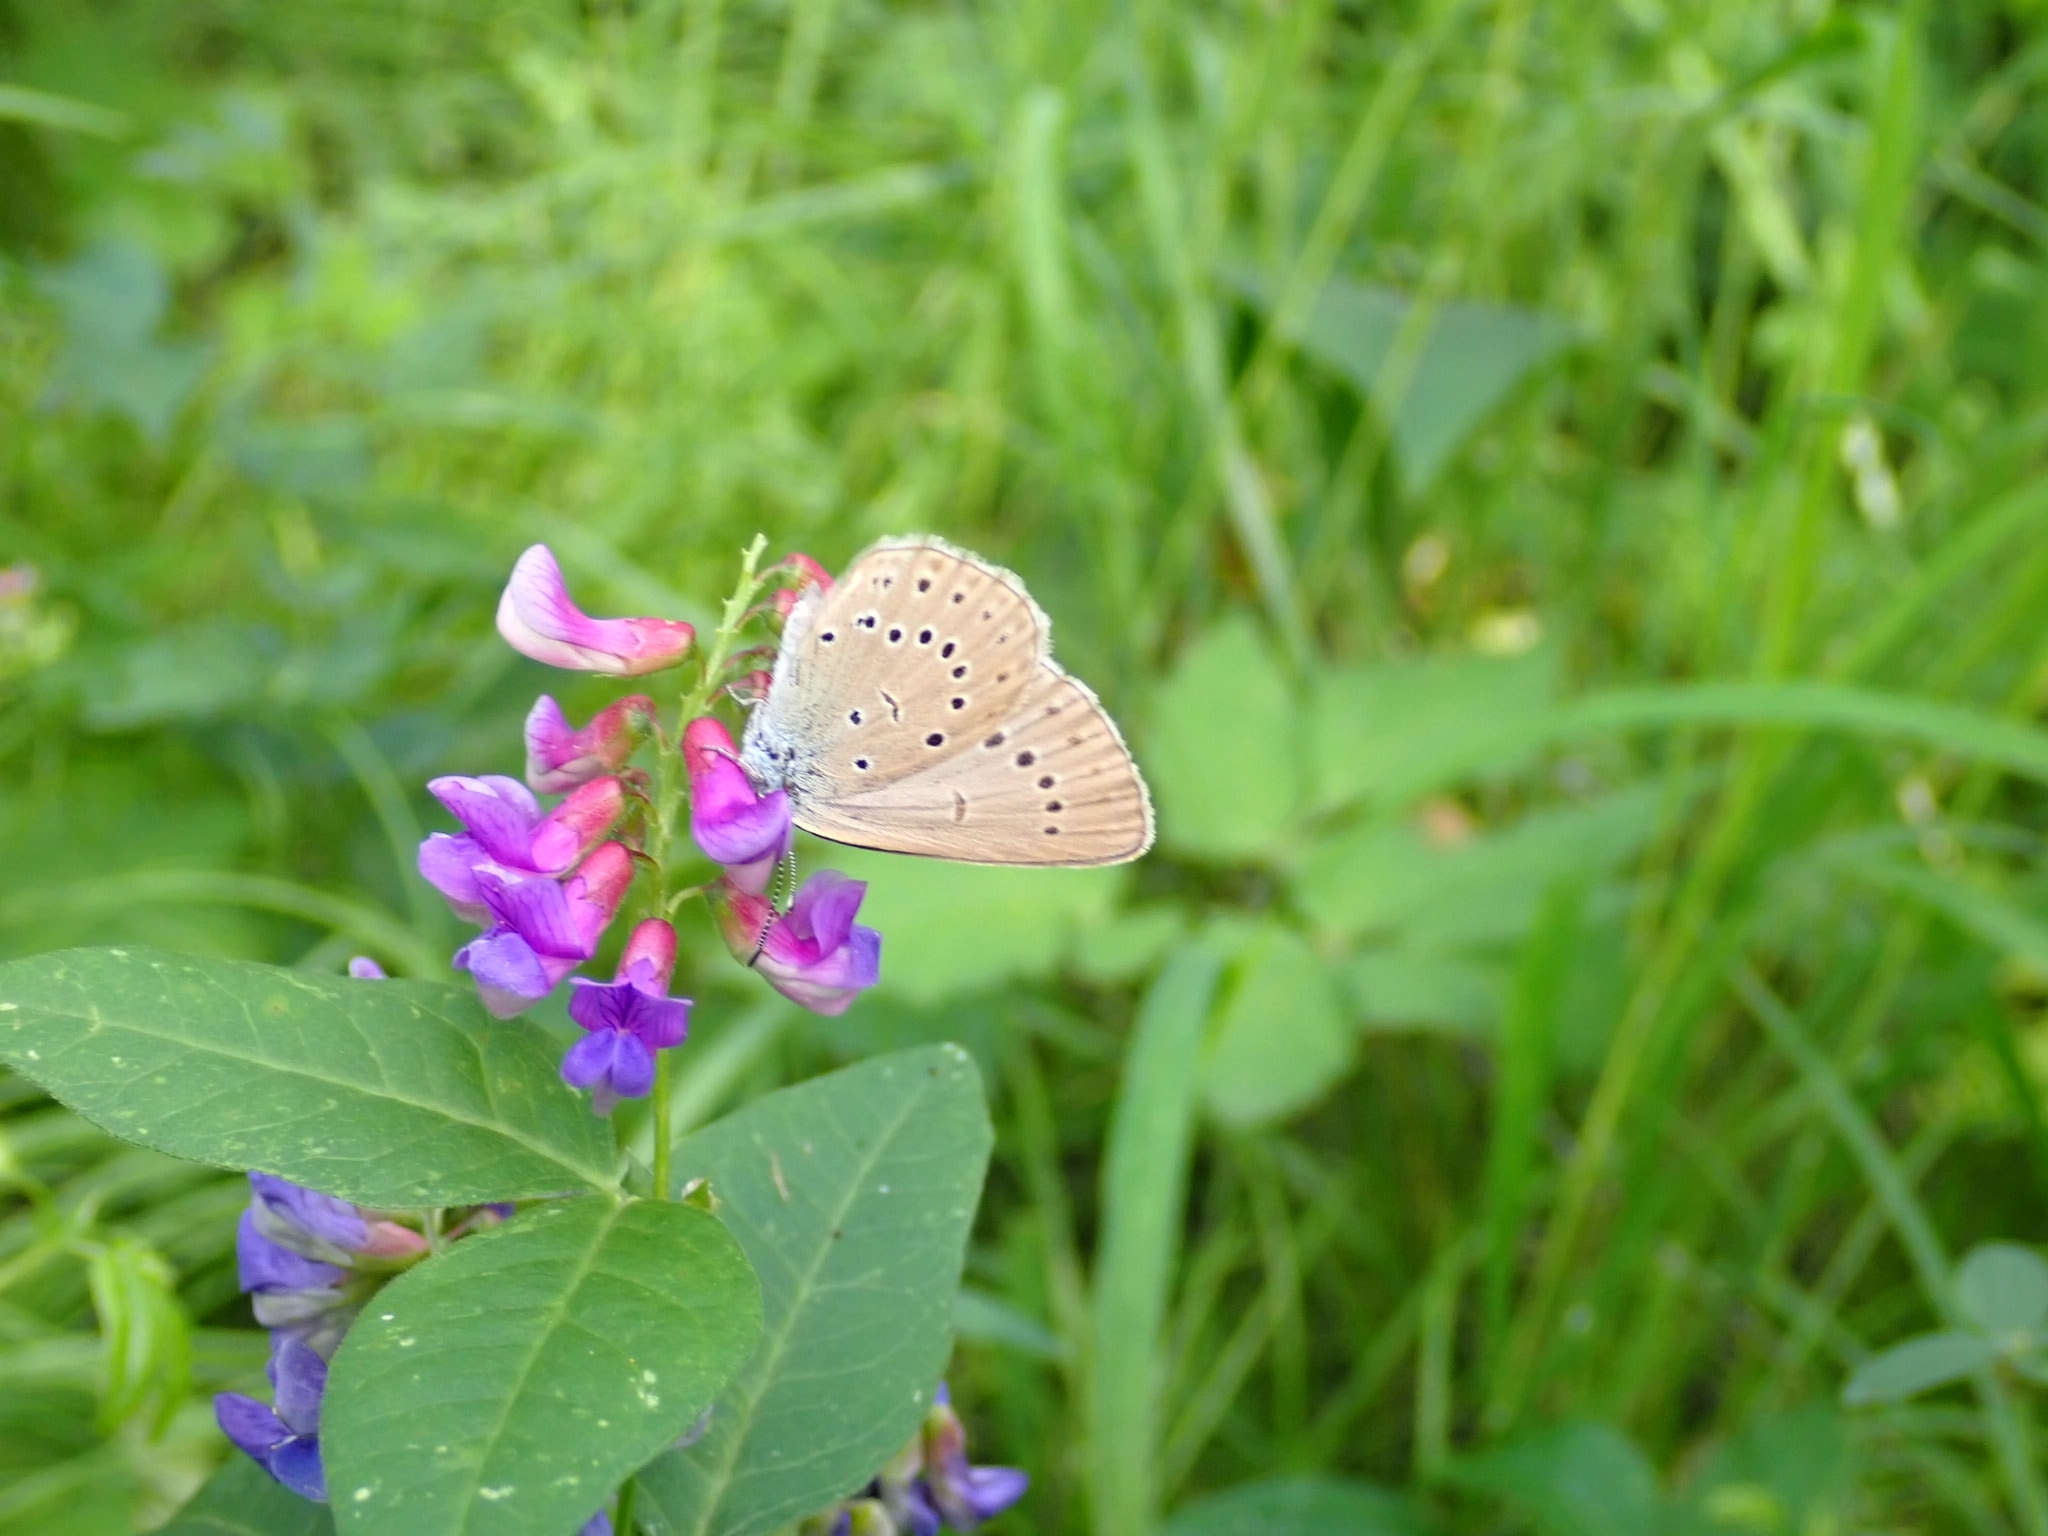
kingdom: Animalia
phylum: Arthropoda
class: Insecta
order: Lepidoptera
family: Lycaenidae
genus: Phengaris
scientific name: Phengaris teleius
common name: Scarce large blue
